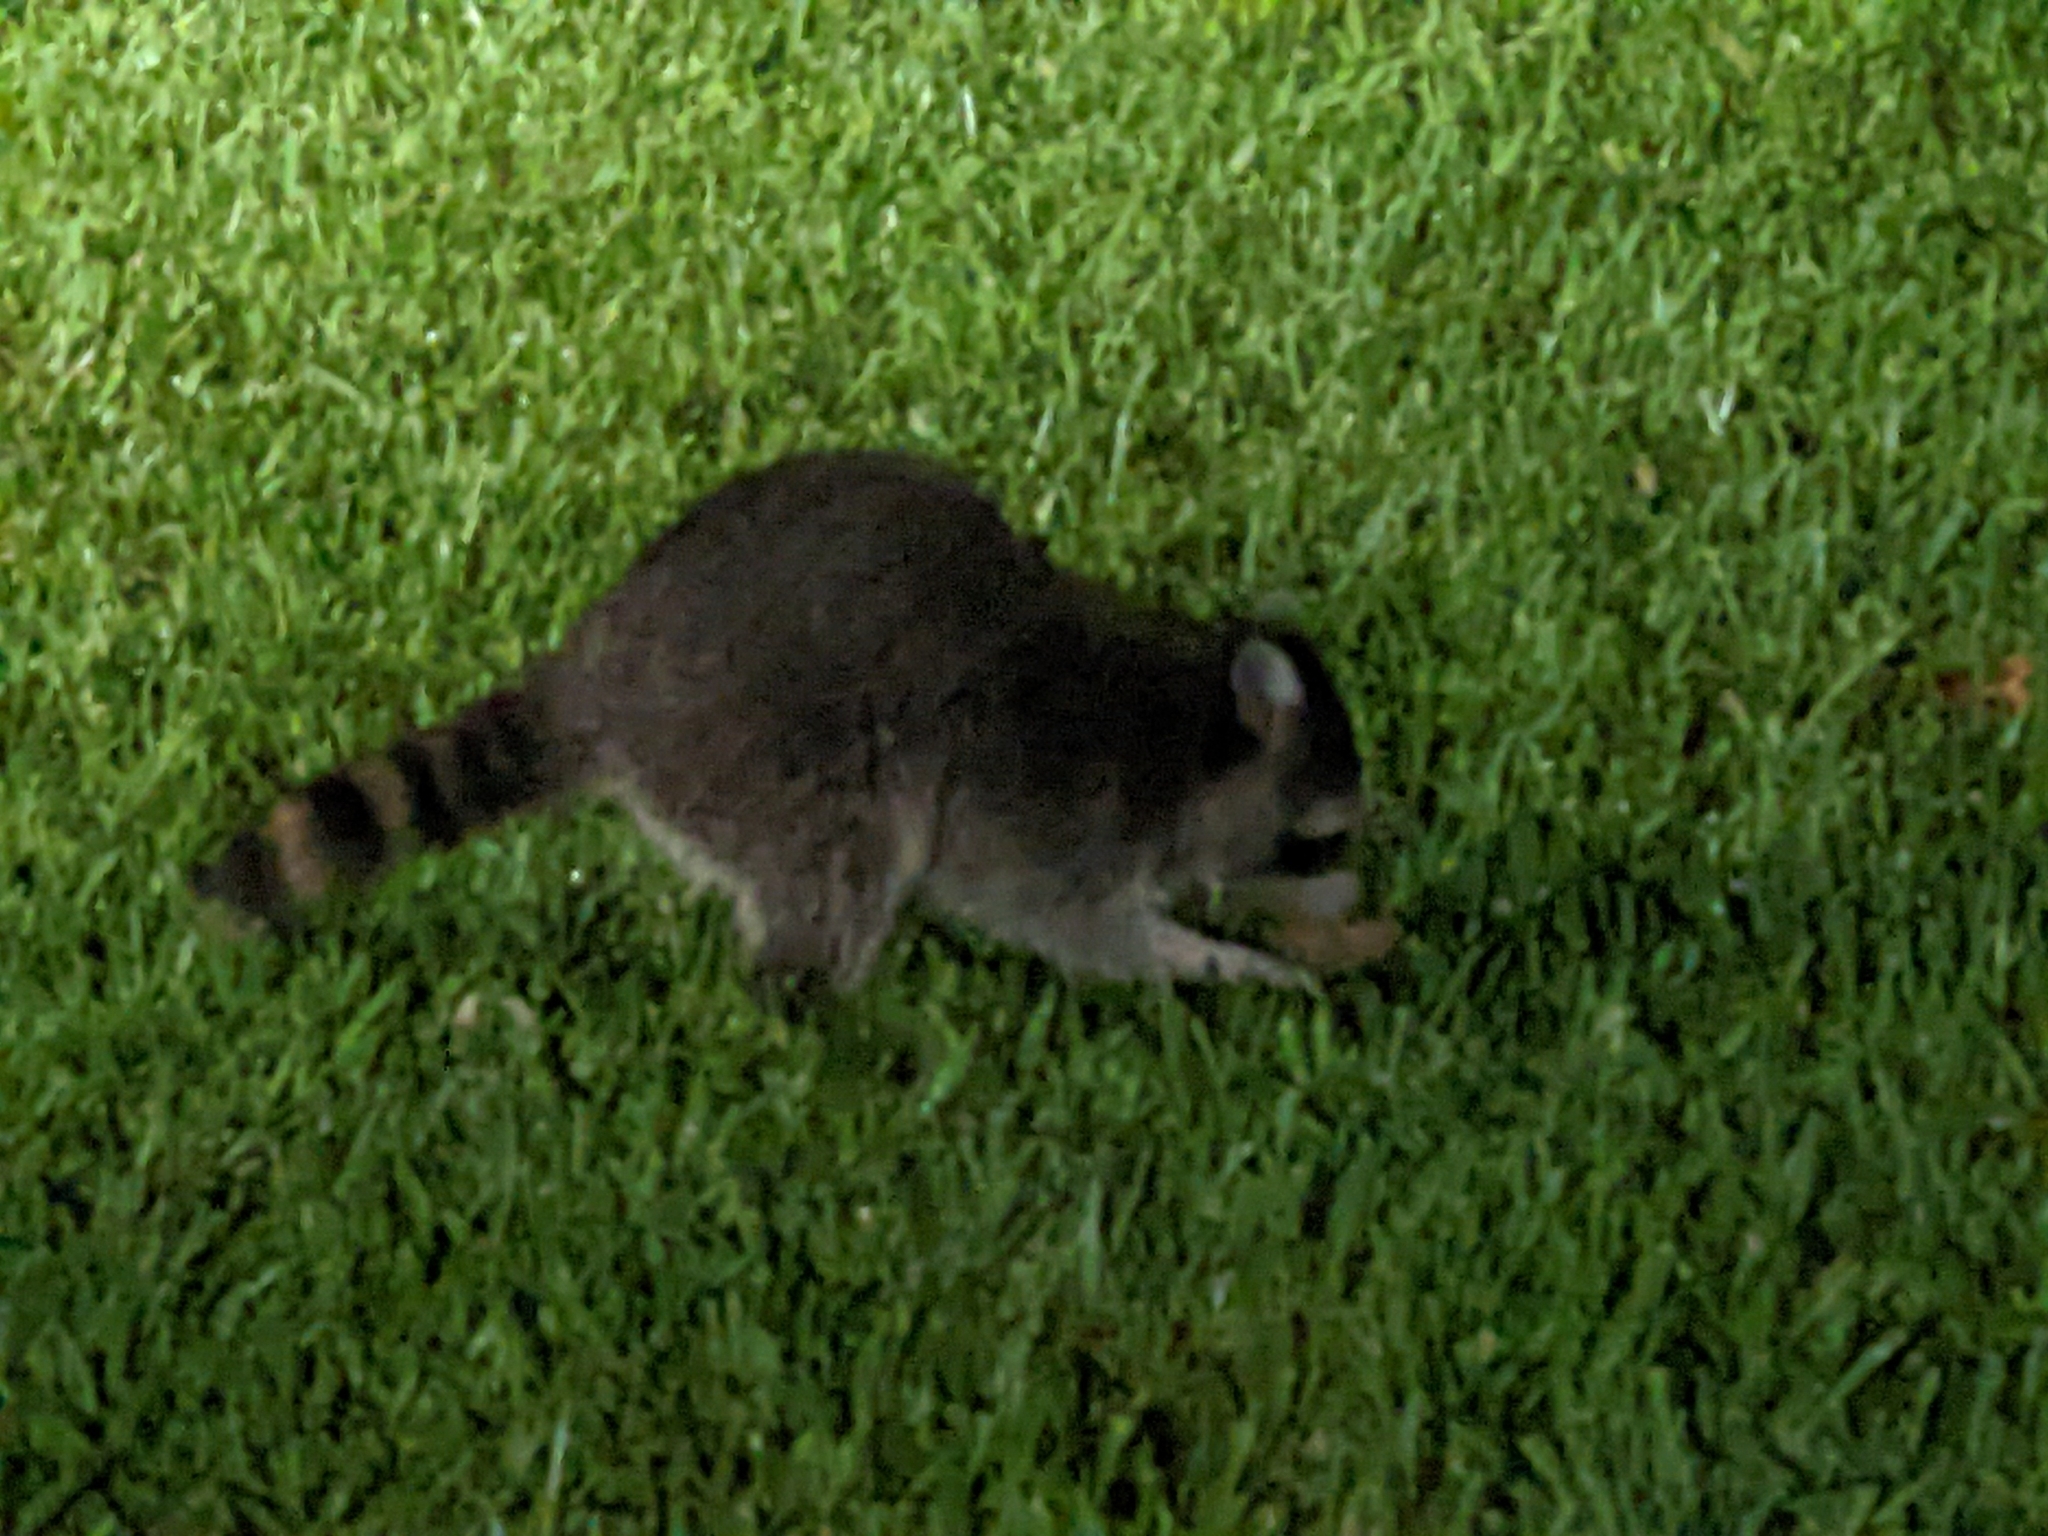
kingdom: Animalia
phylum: Chordata
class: Mammalia
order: Carnivora
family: Procyonidae
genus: Procyon
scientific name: Procyon lotor
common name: Raccoon
